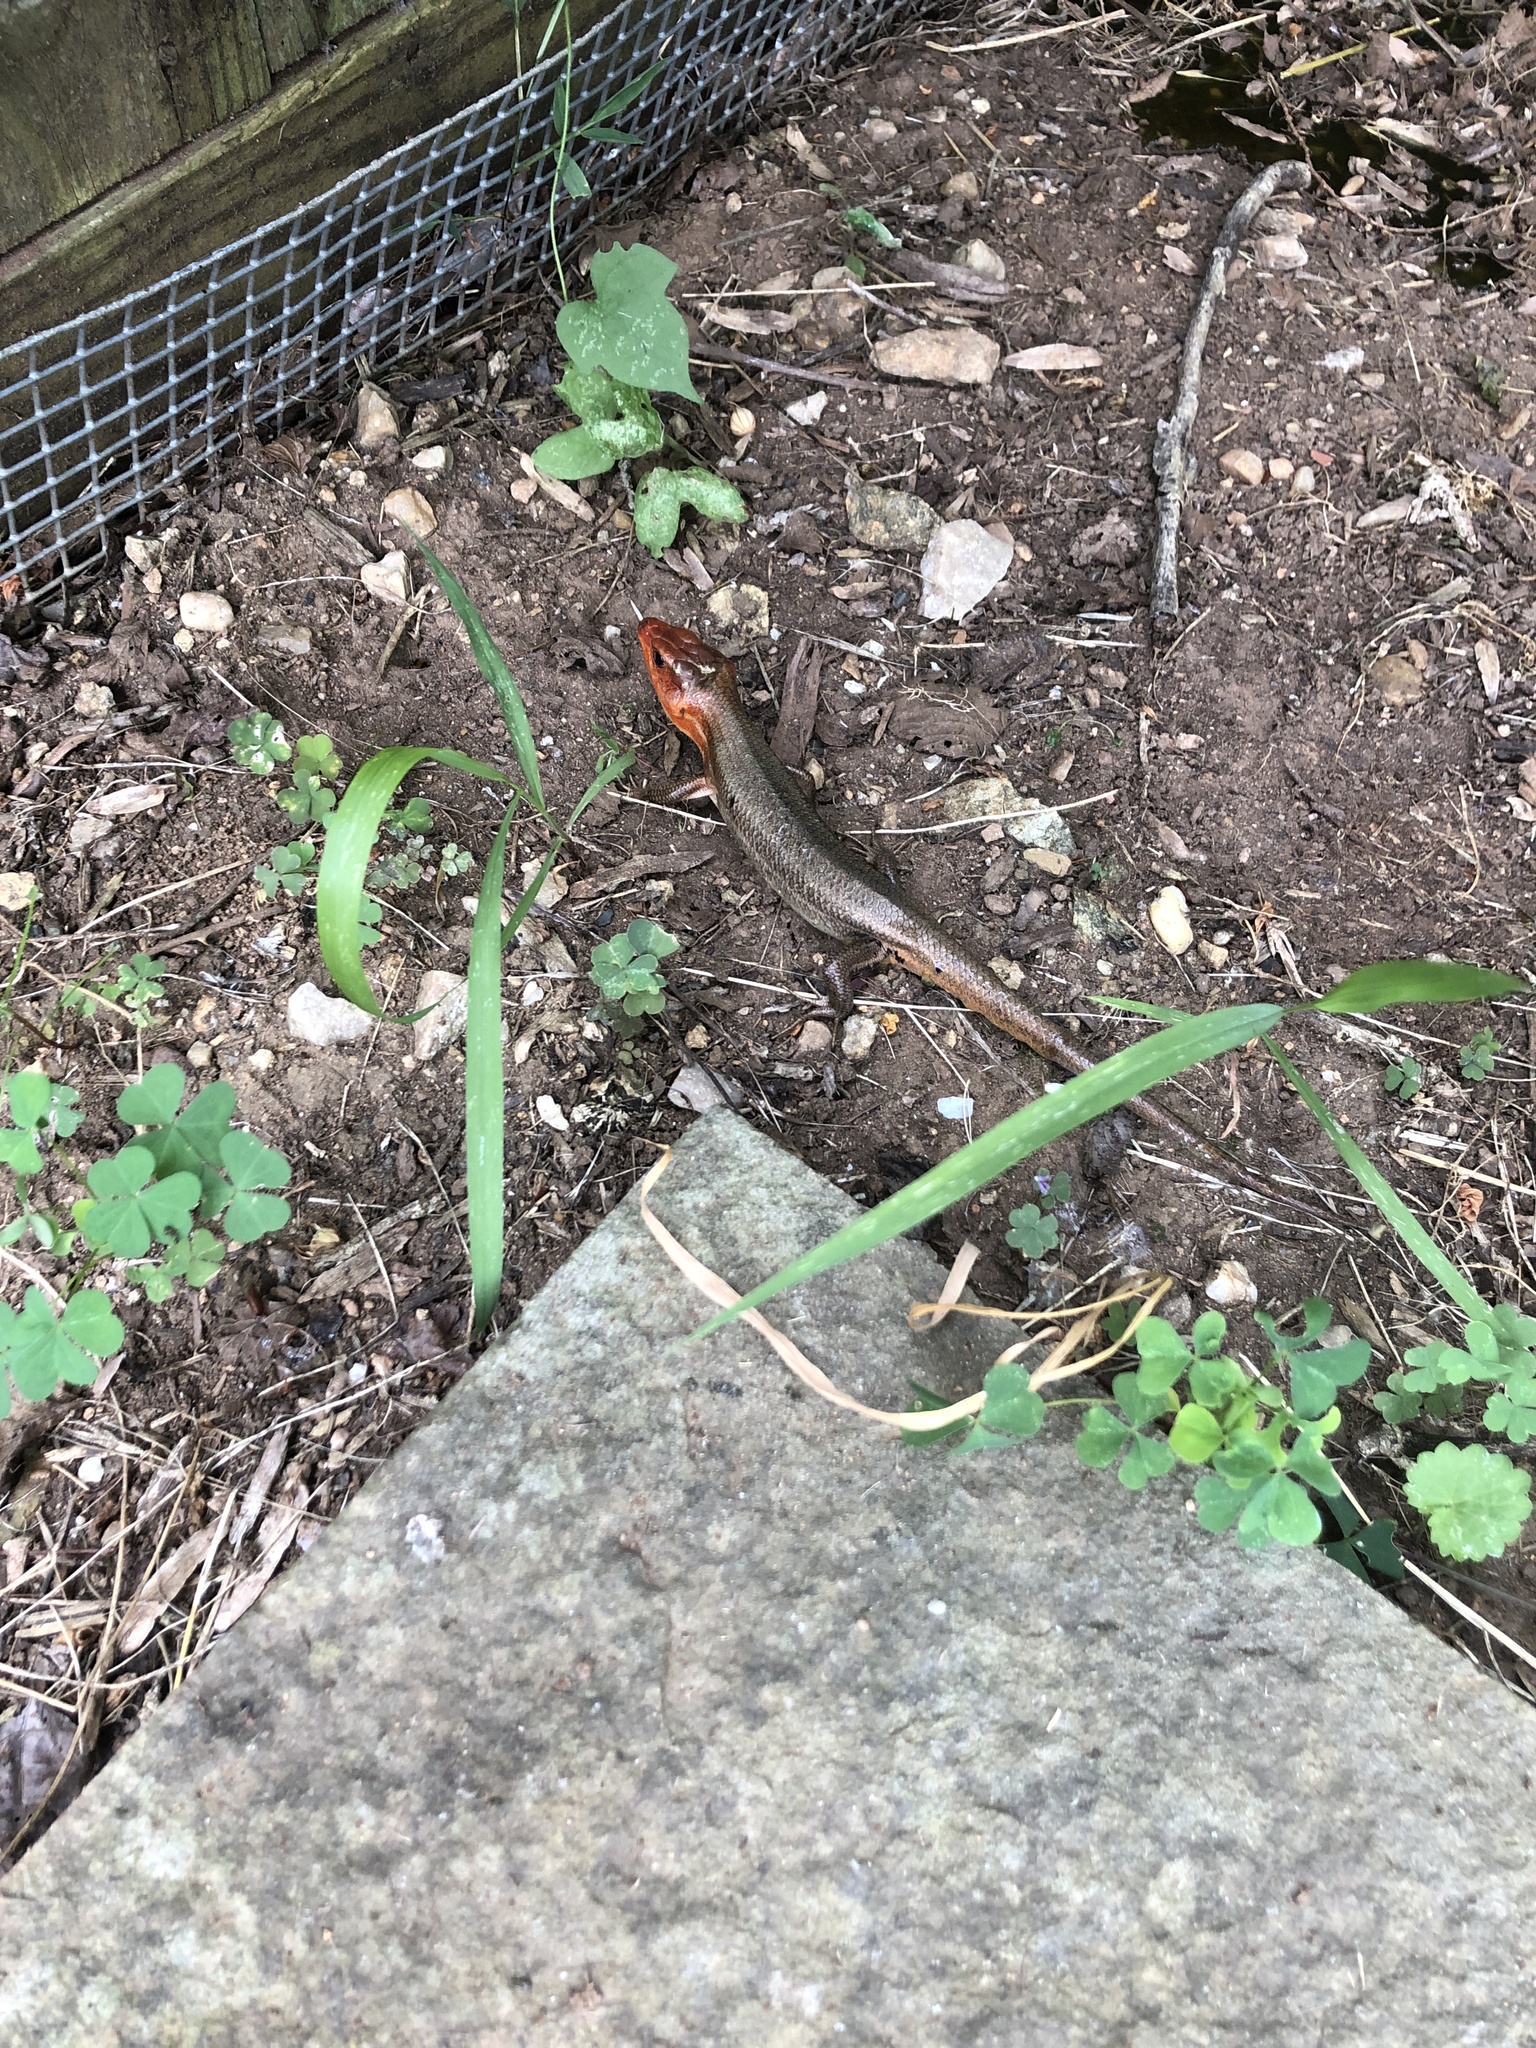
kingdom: Animalia
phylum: Chordata
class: Squamata
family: Scincidae
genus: Plestiodon
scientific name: Plestiodon laticeps
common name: Broadhead skink
